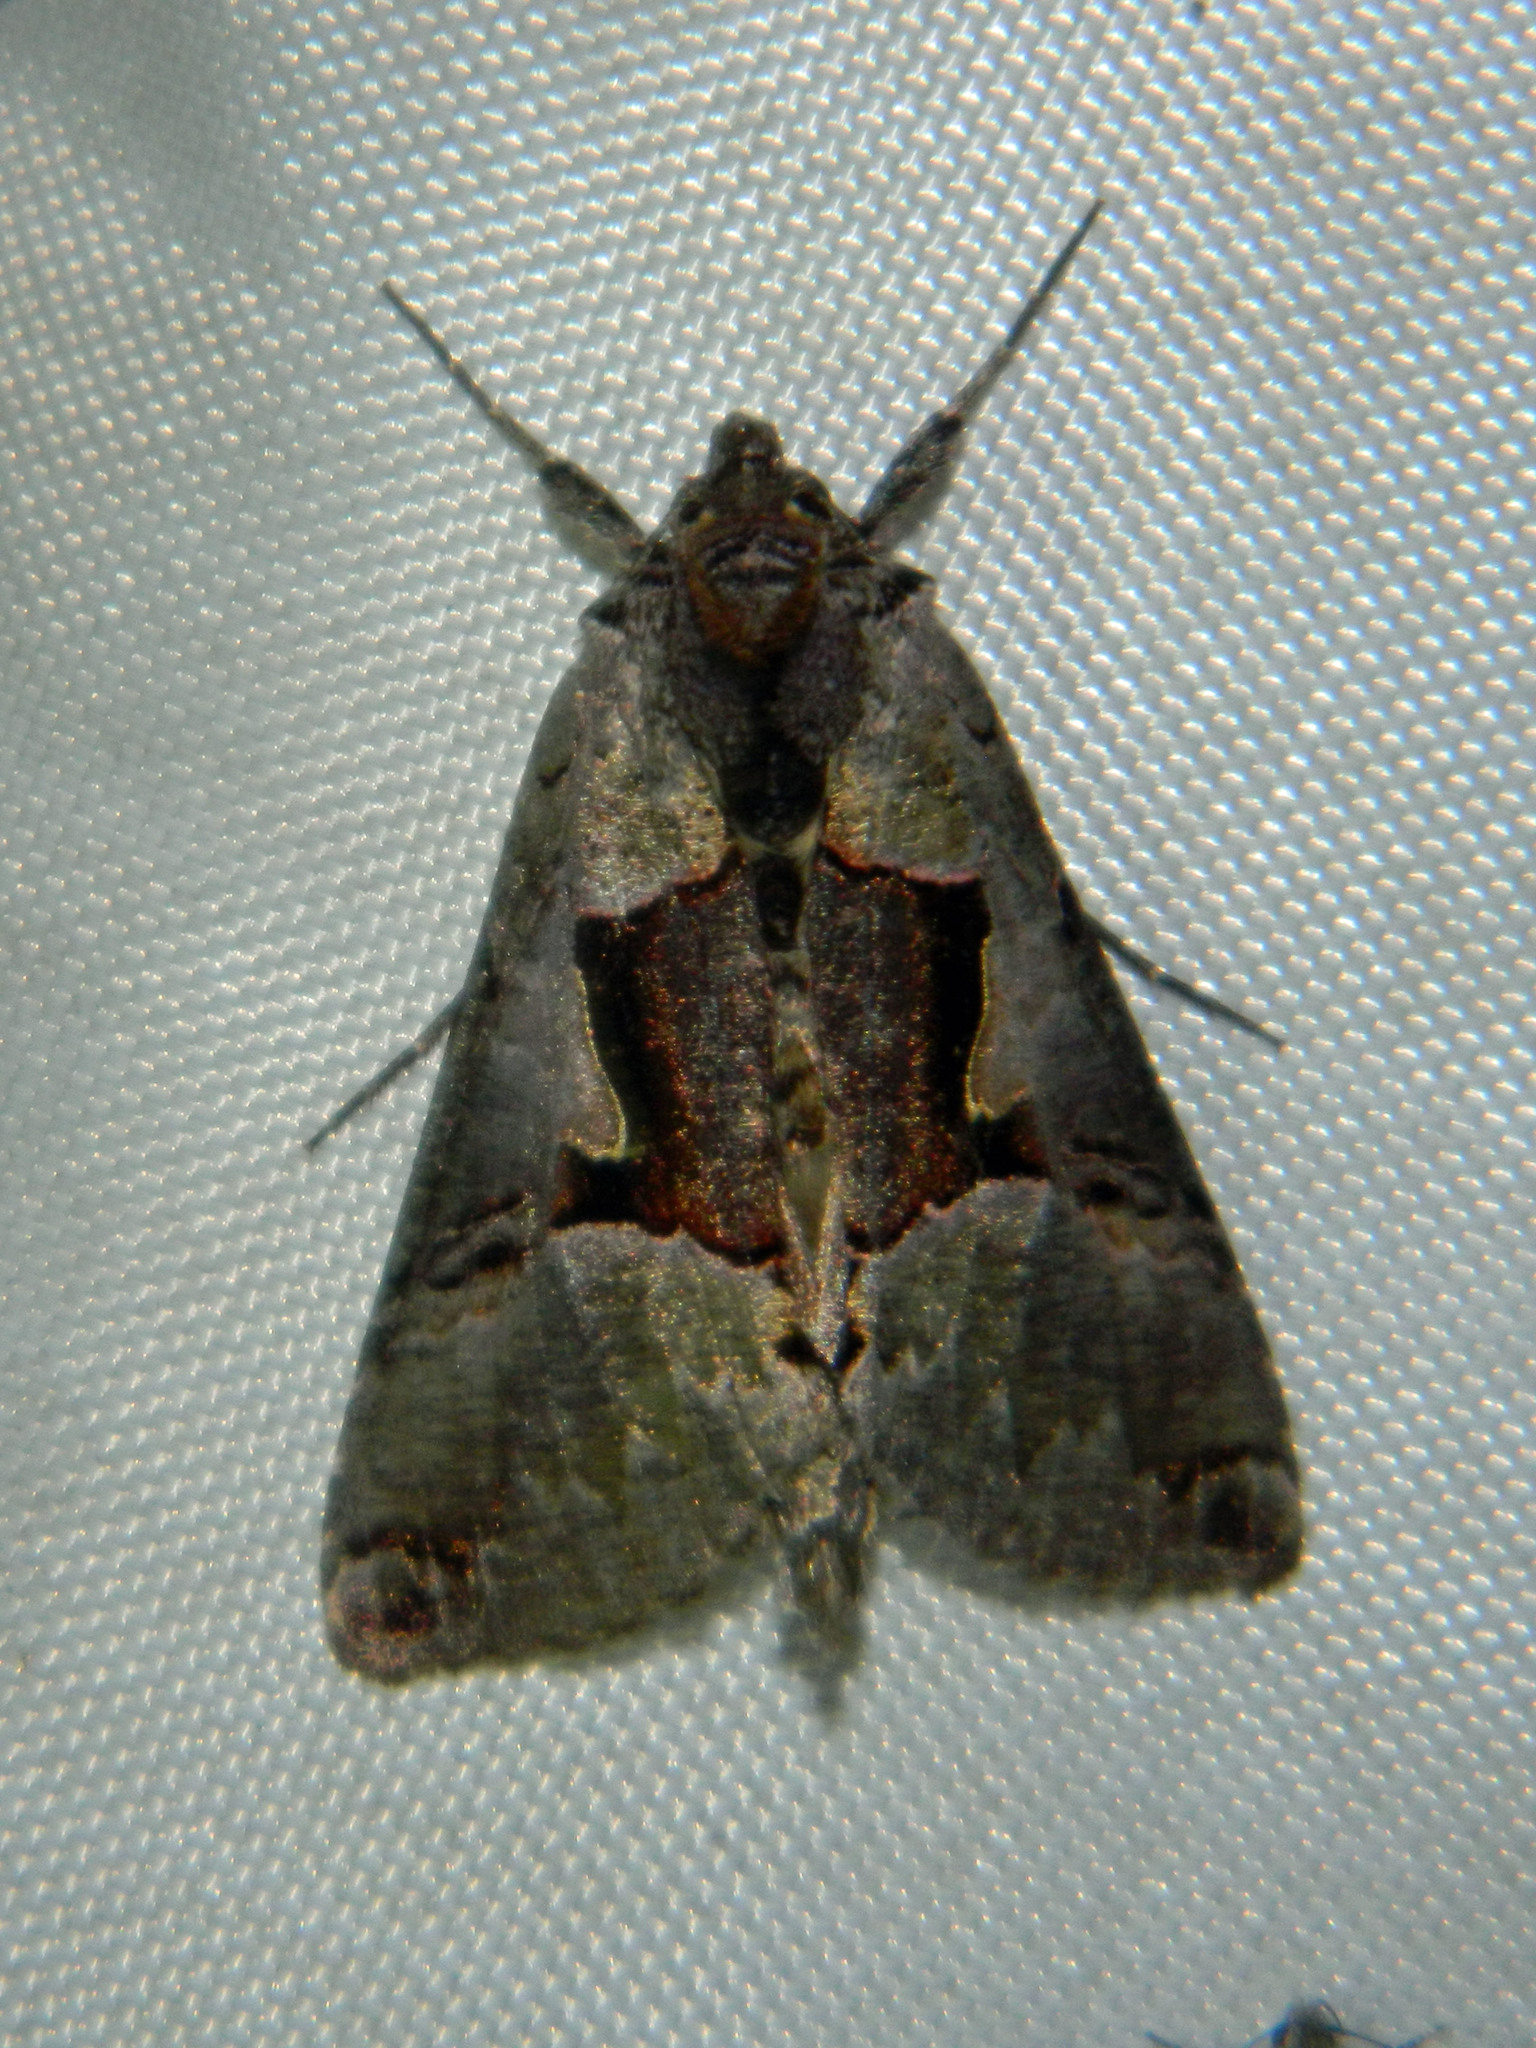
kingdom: Animalia
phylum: Arthropoda
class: Insecta
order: Lepidoptera
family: Noctuidae
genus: Autographa
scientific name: Autographa ampla
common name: Large looper moth
